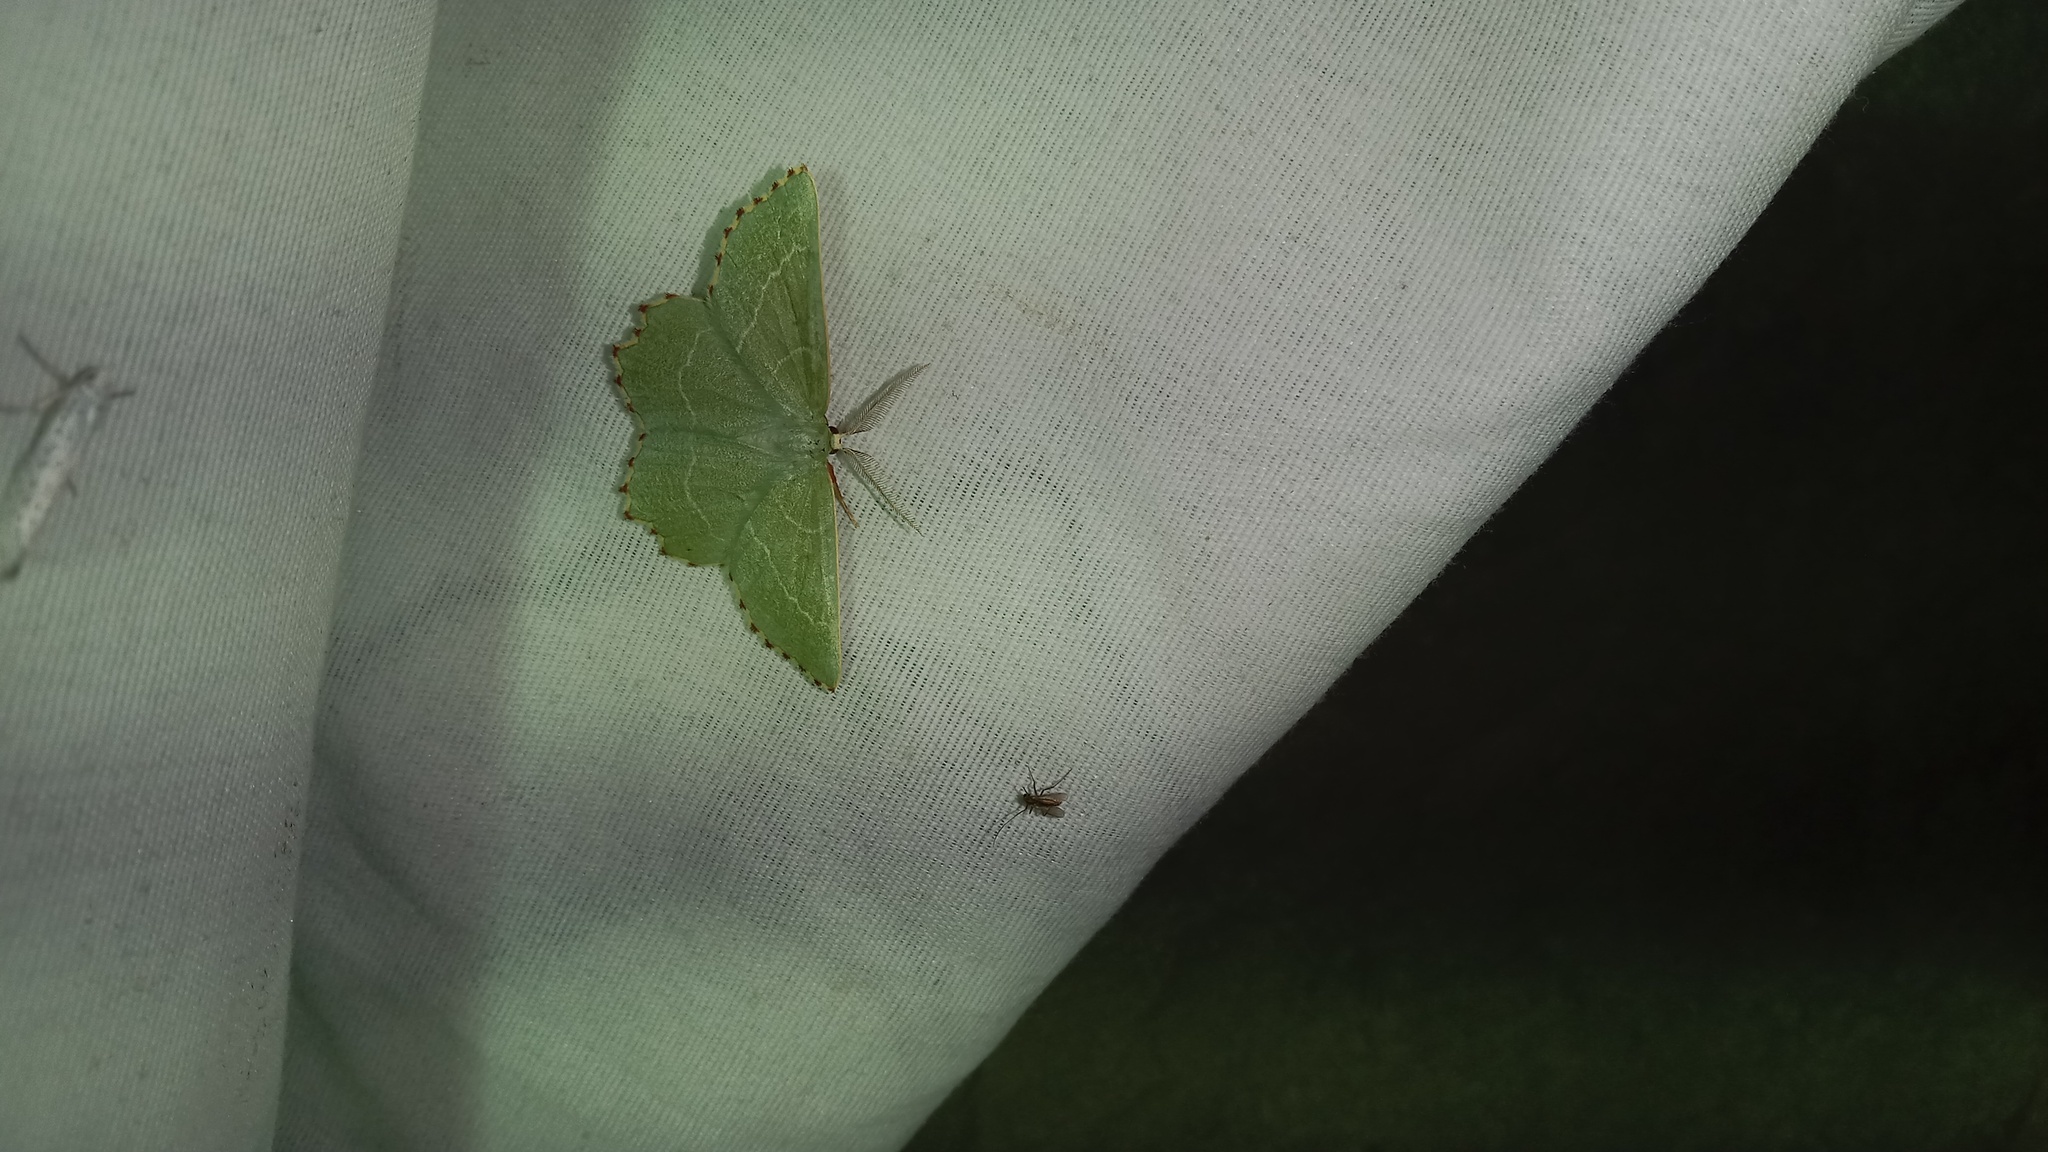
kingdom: Animalia
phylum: Arthropoda
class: Insecta
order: Lepidoptera
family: Geometridae
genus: Thalera
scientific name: Thalera fimbrialis
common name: Sussex emerald
